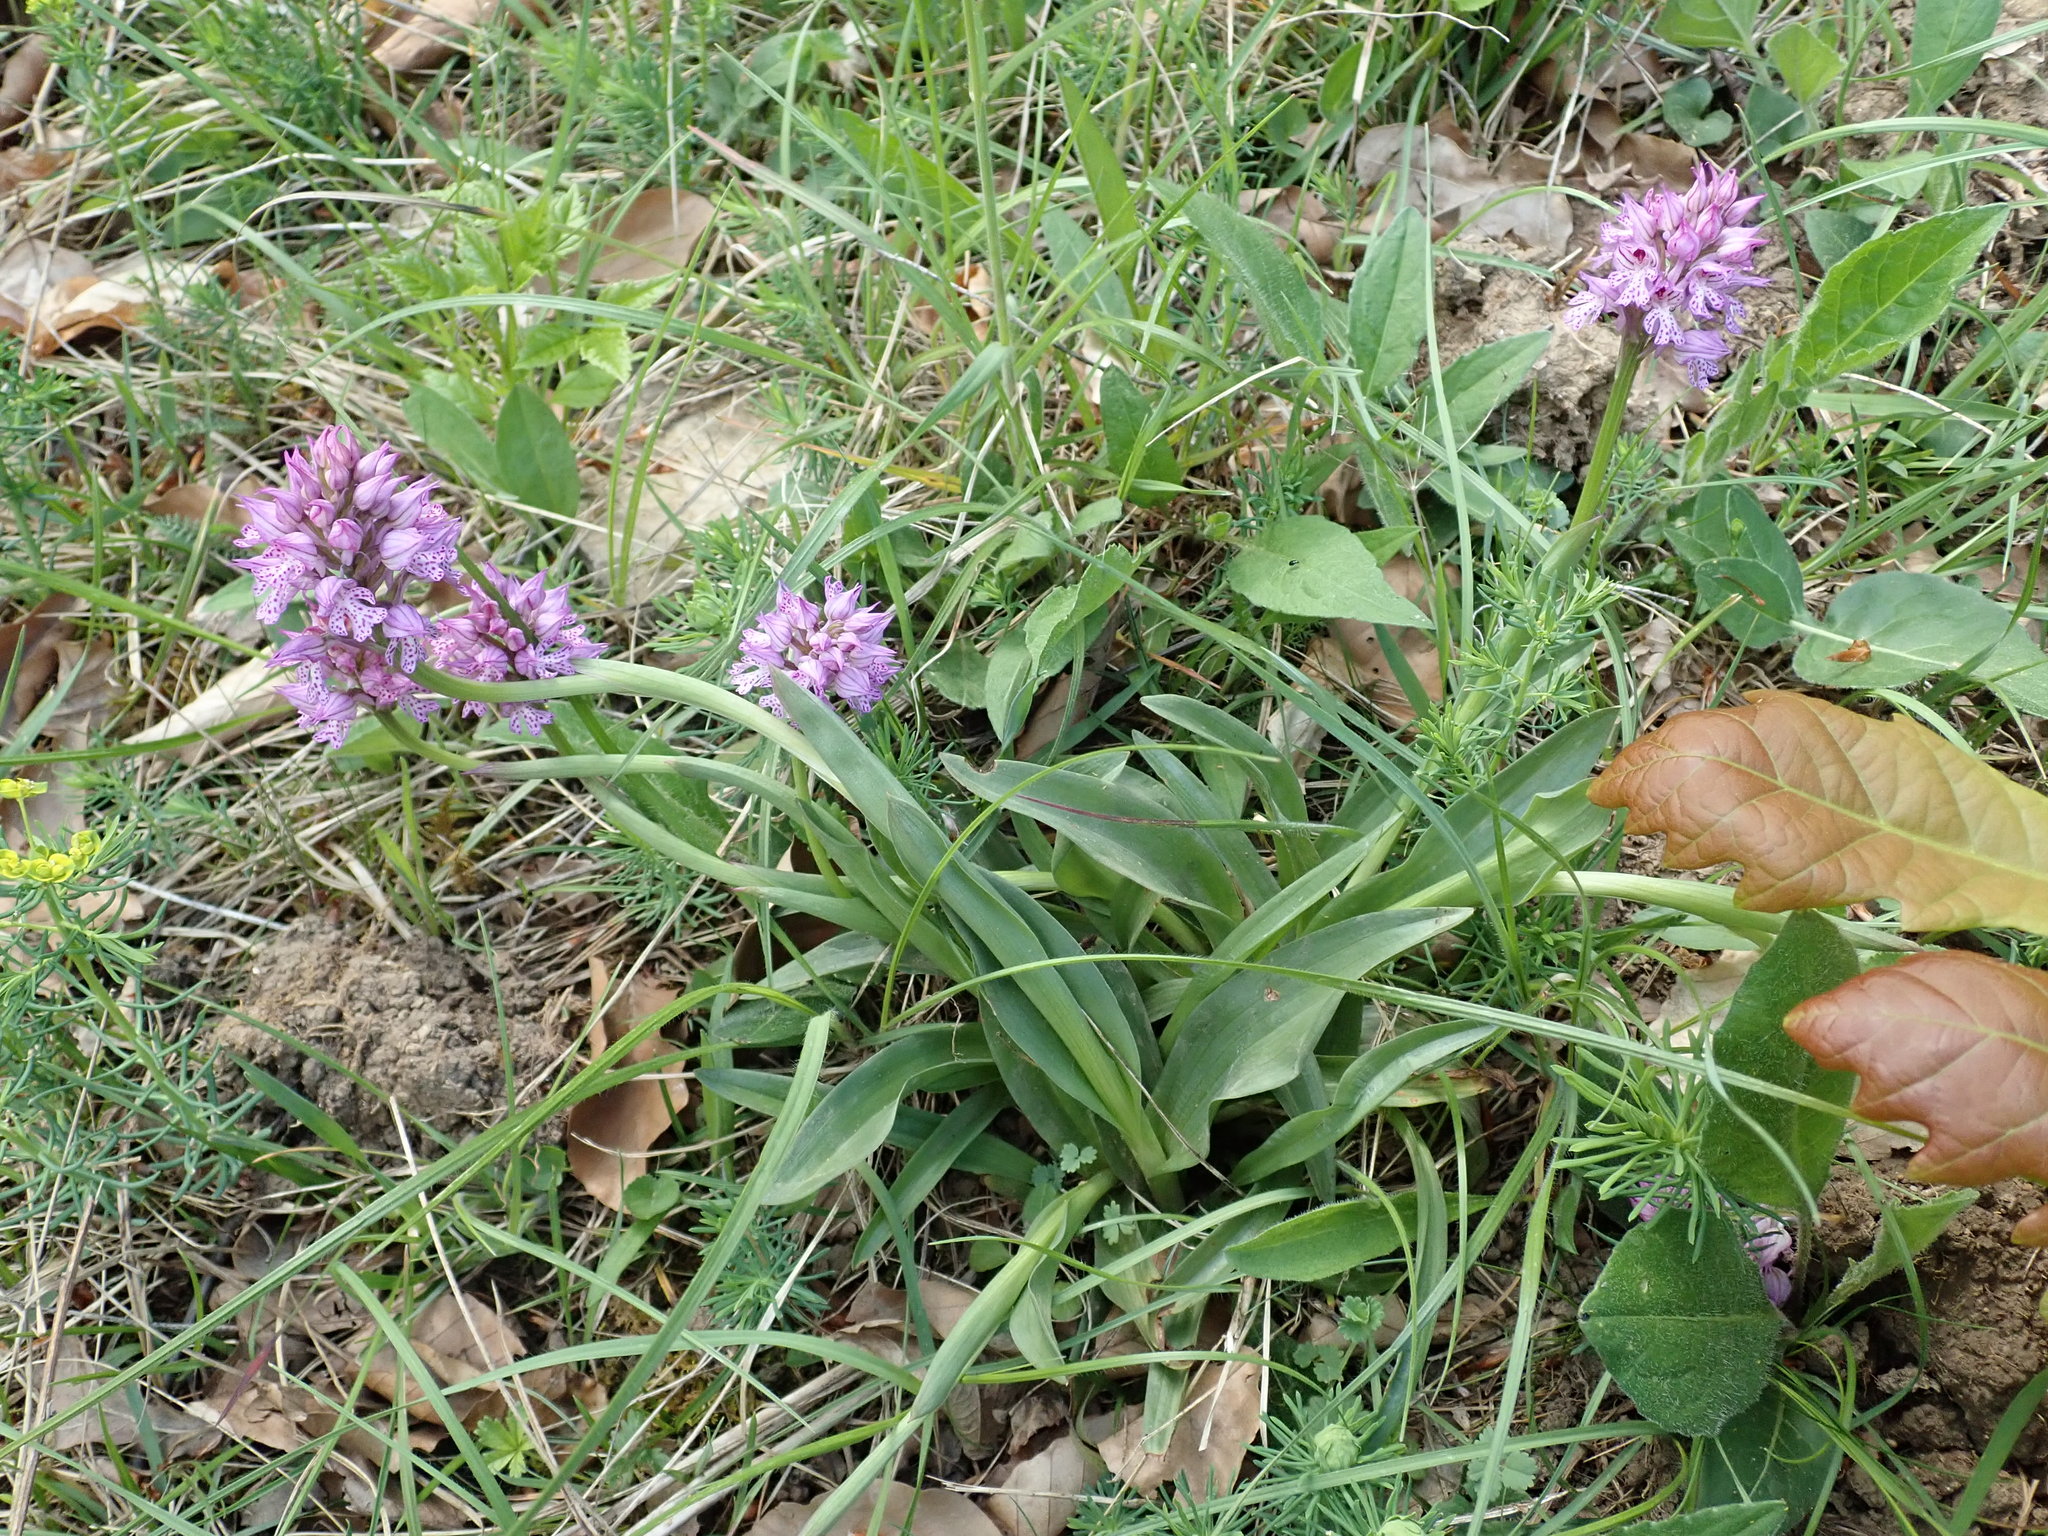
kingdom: Plantae
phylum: Tracheophyta
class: Liliopsida
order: Asparagales
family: Orchidaceae
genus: Neotinea
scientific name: Neotinea tridentata
